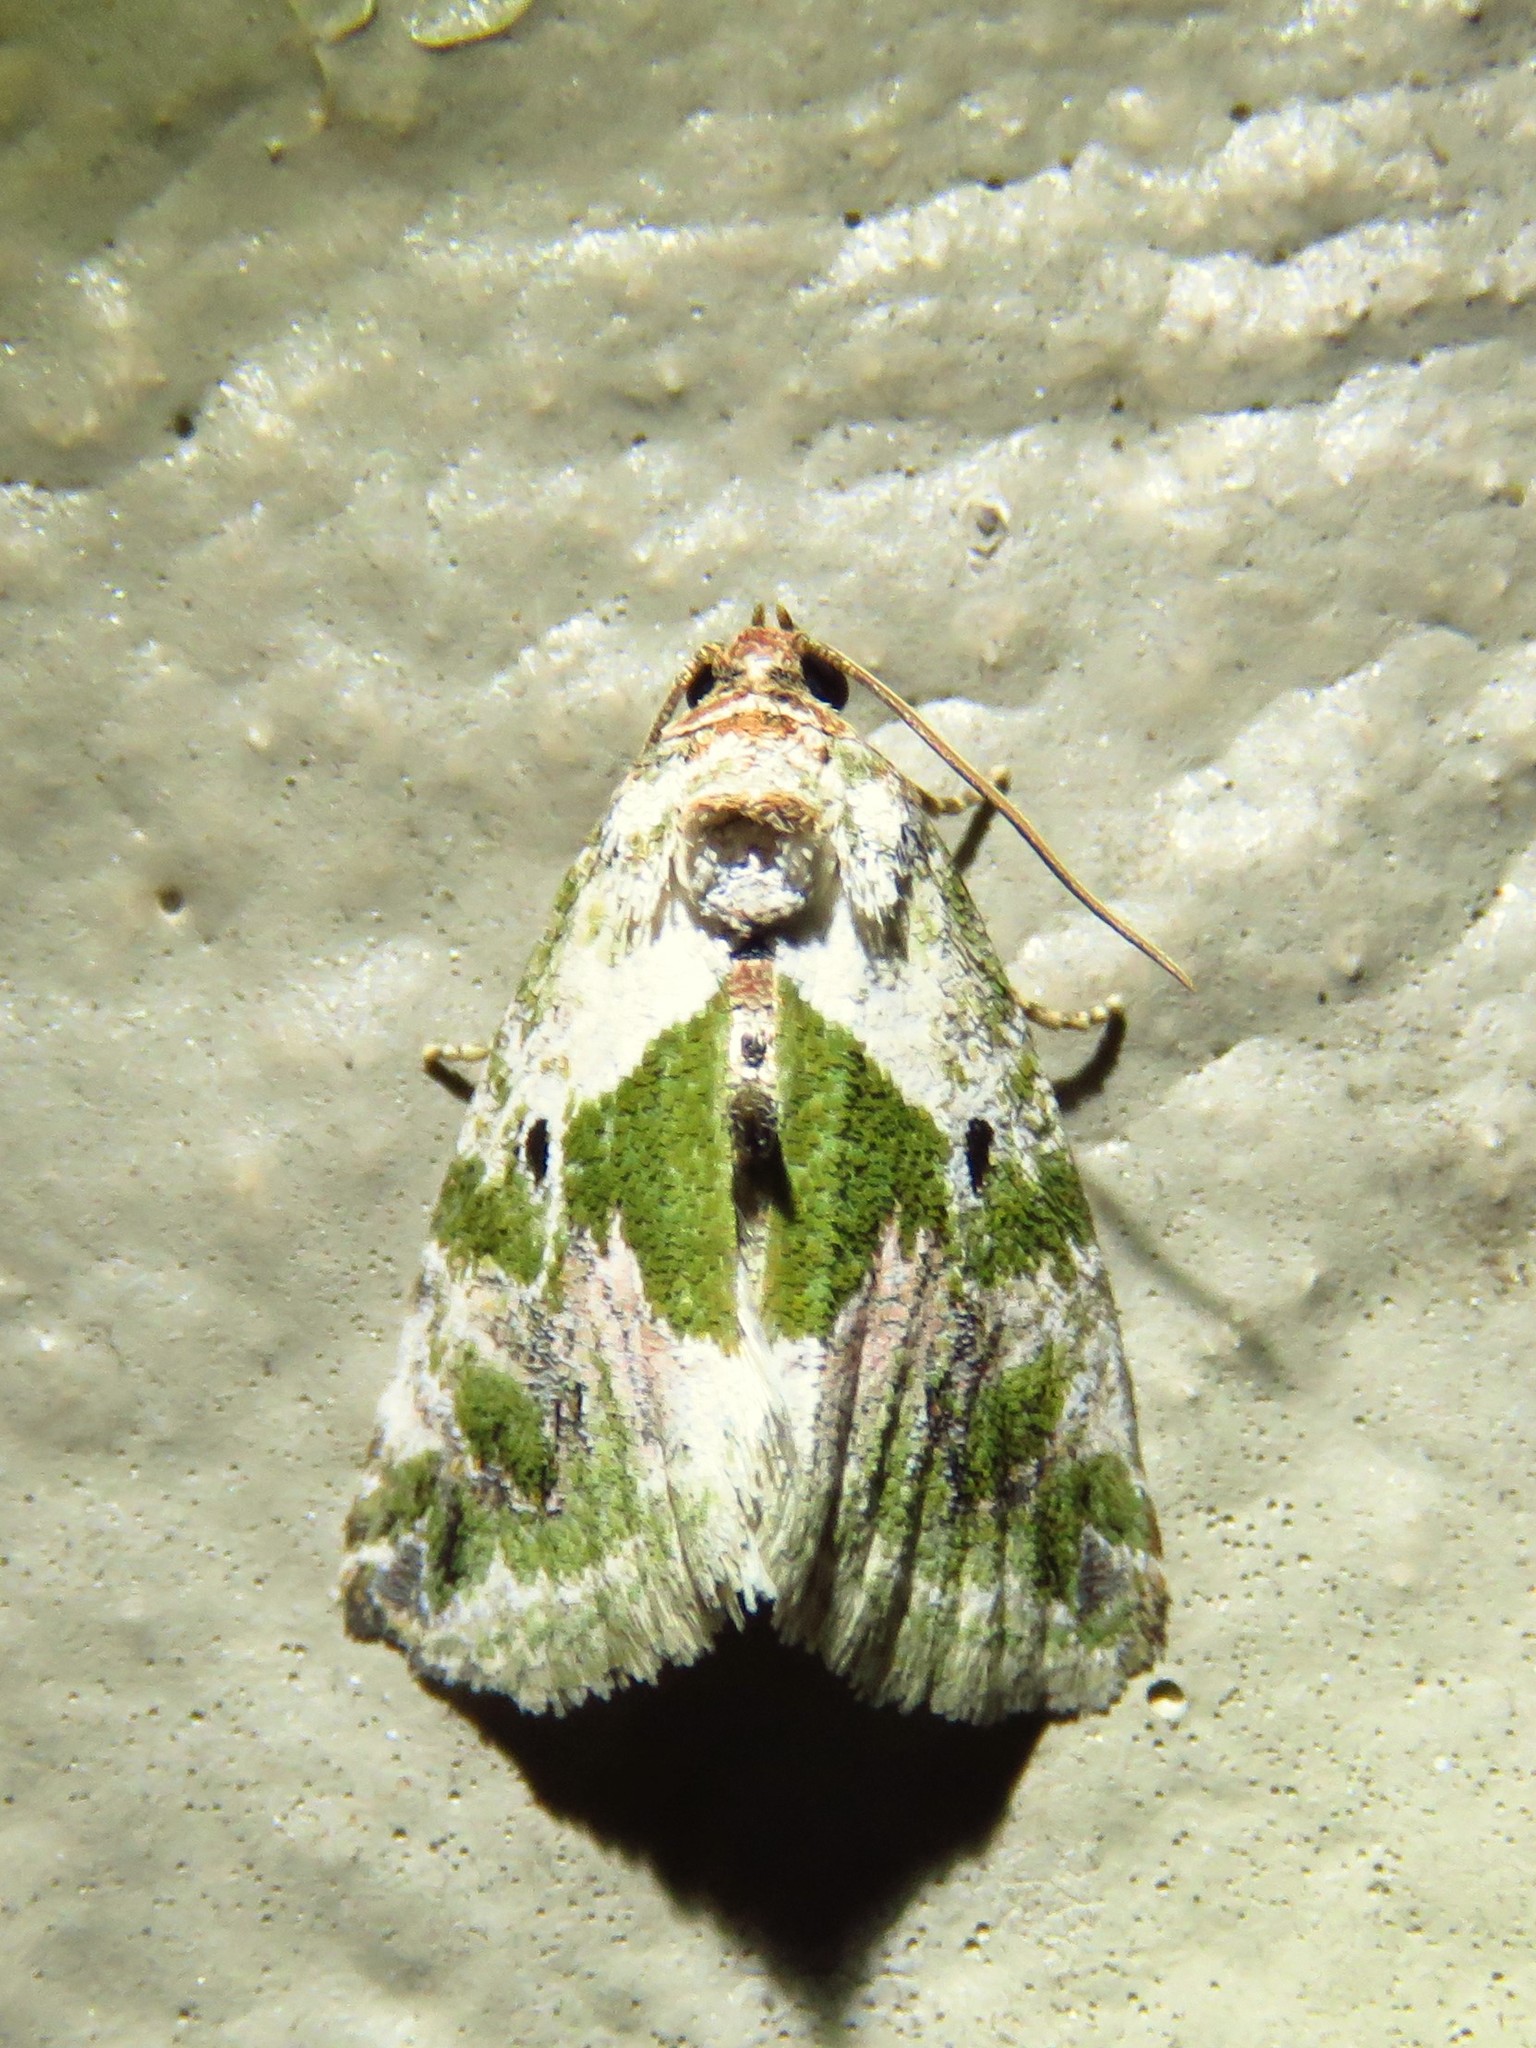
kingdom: Animalia
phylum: Arthropoda
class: Insecta
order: Lepidoptera
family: Noctuidae
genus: Maliattha
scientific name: Maliattha synochitis
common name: Black-dotted glyph
